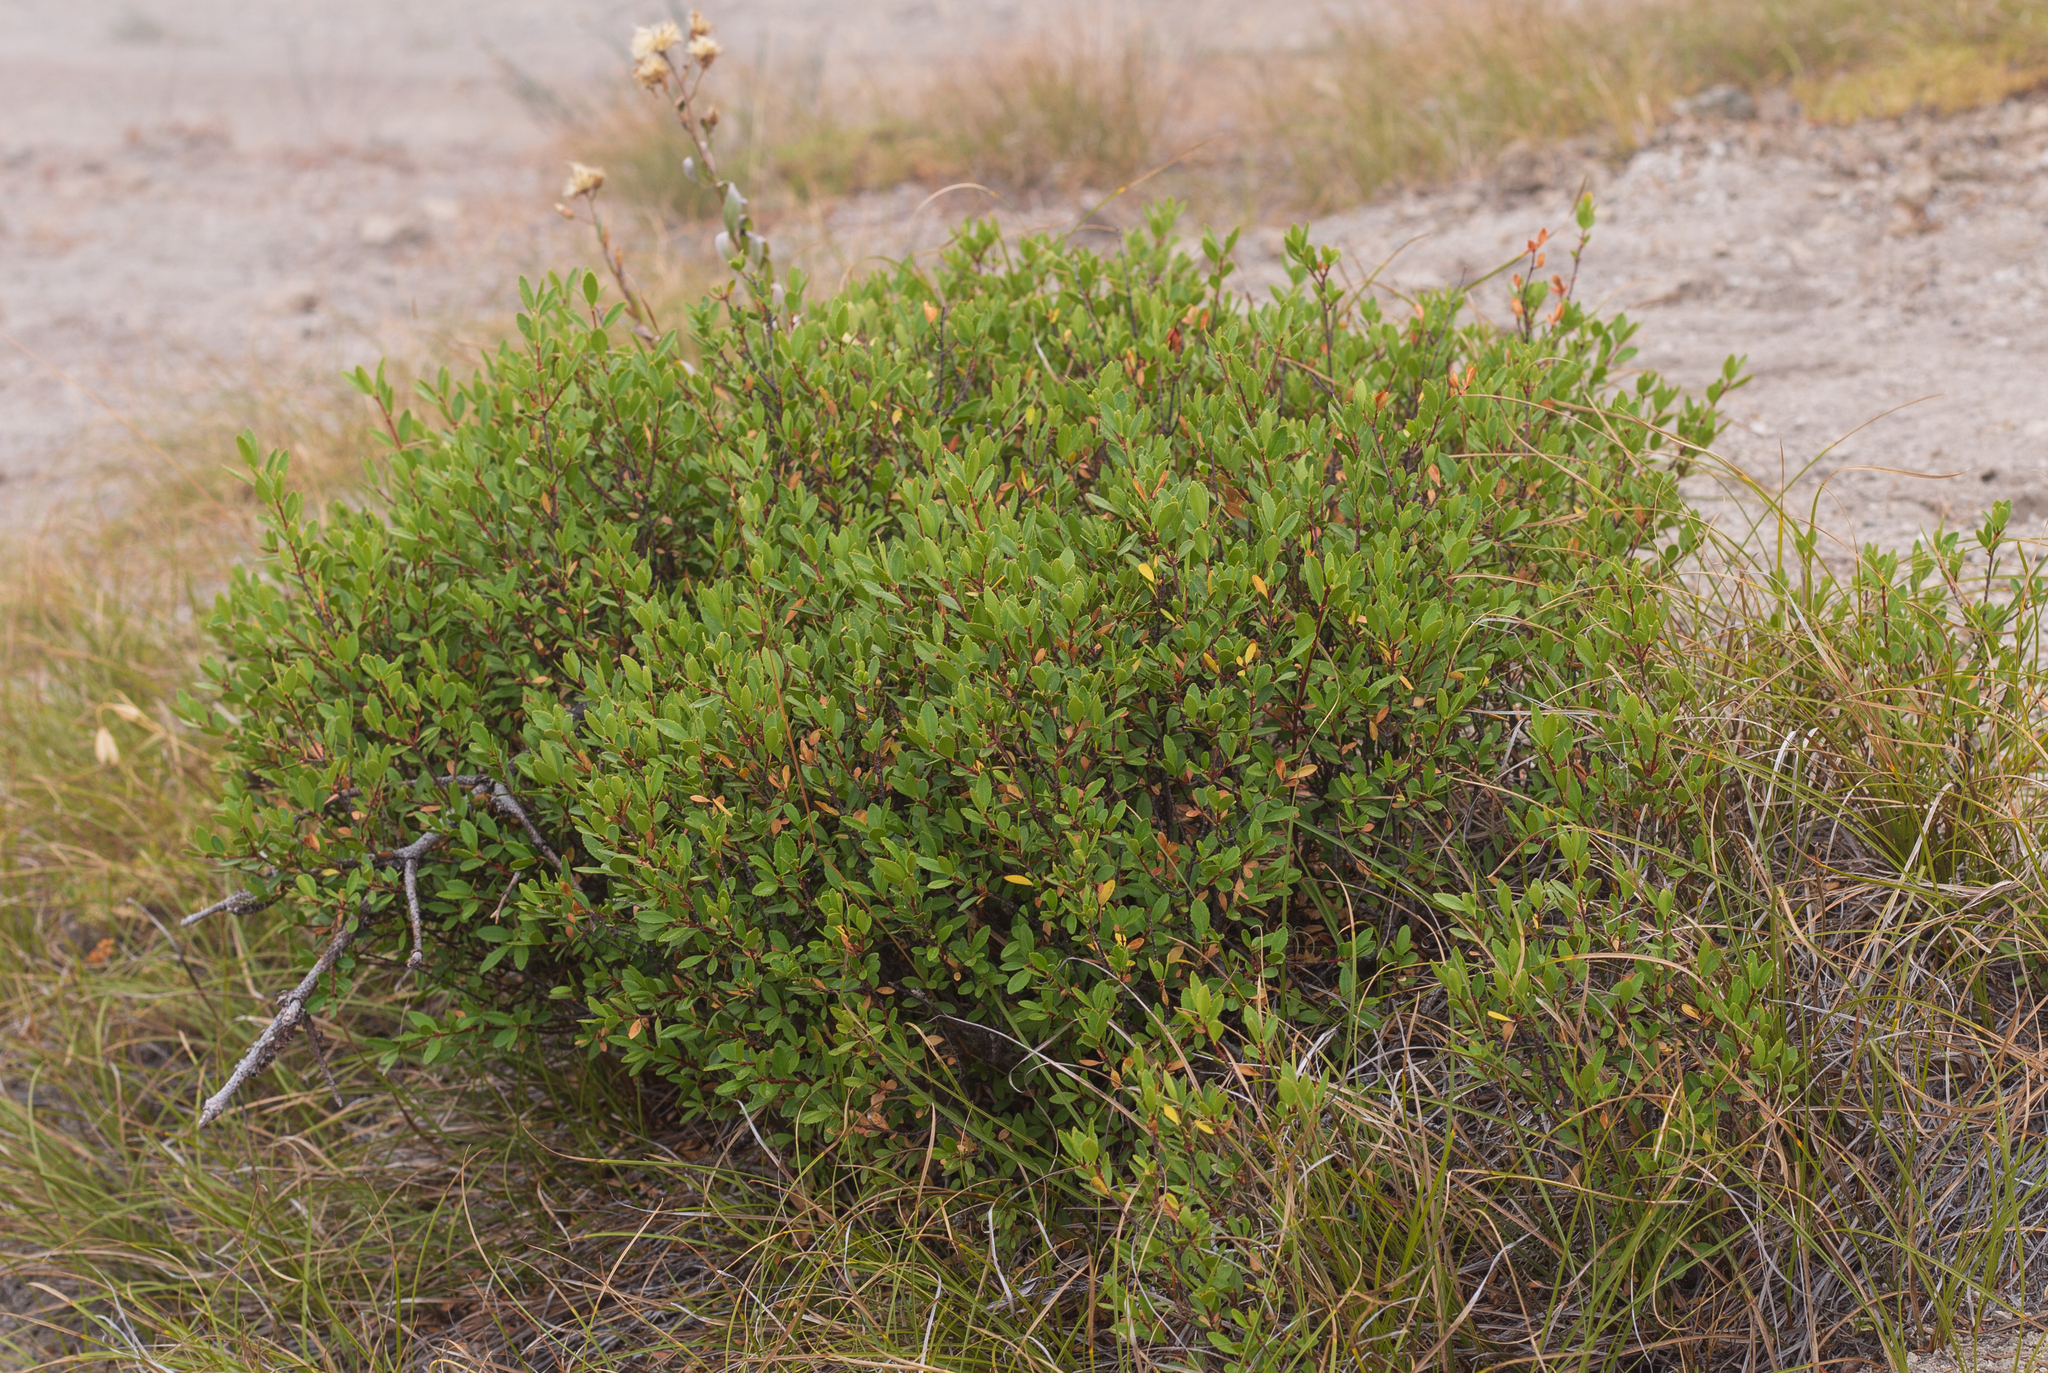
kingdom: Plantae
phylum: Tracheophyta
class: Magnoliopsida
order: Celastrales
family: Celastraceae
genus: Paxistima
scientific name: Paxistima myrsinites
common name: Mountain-lover
